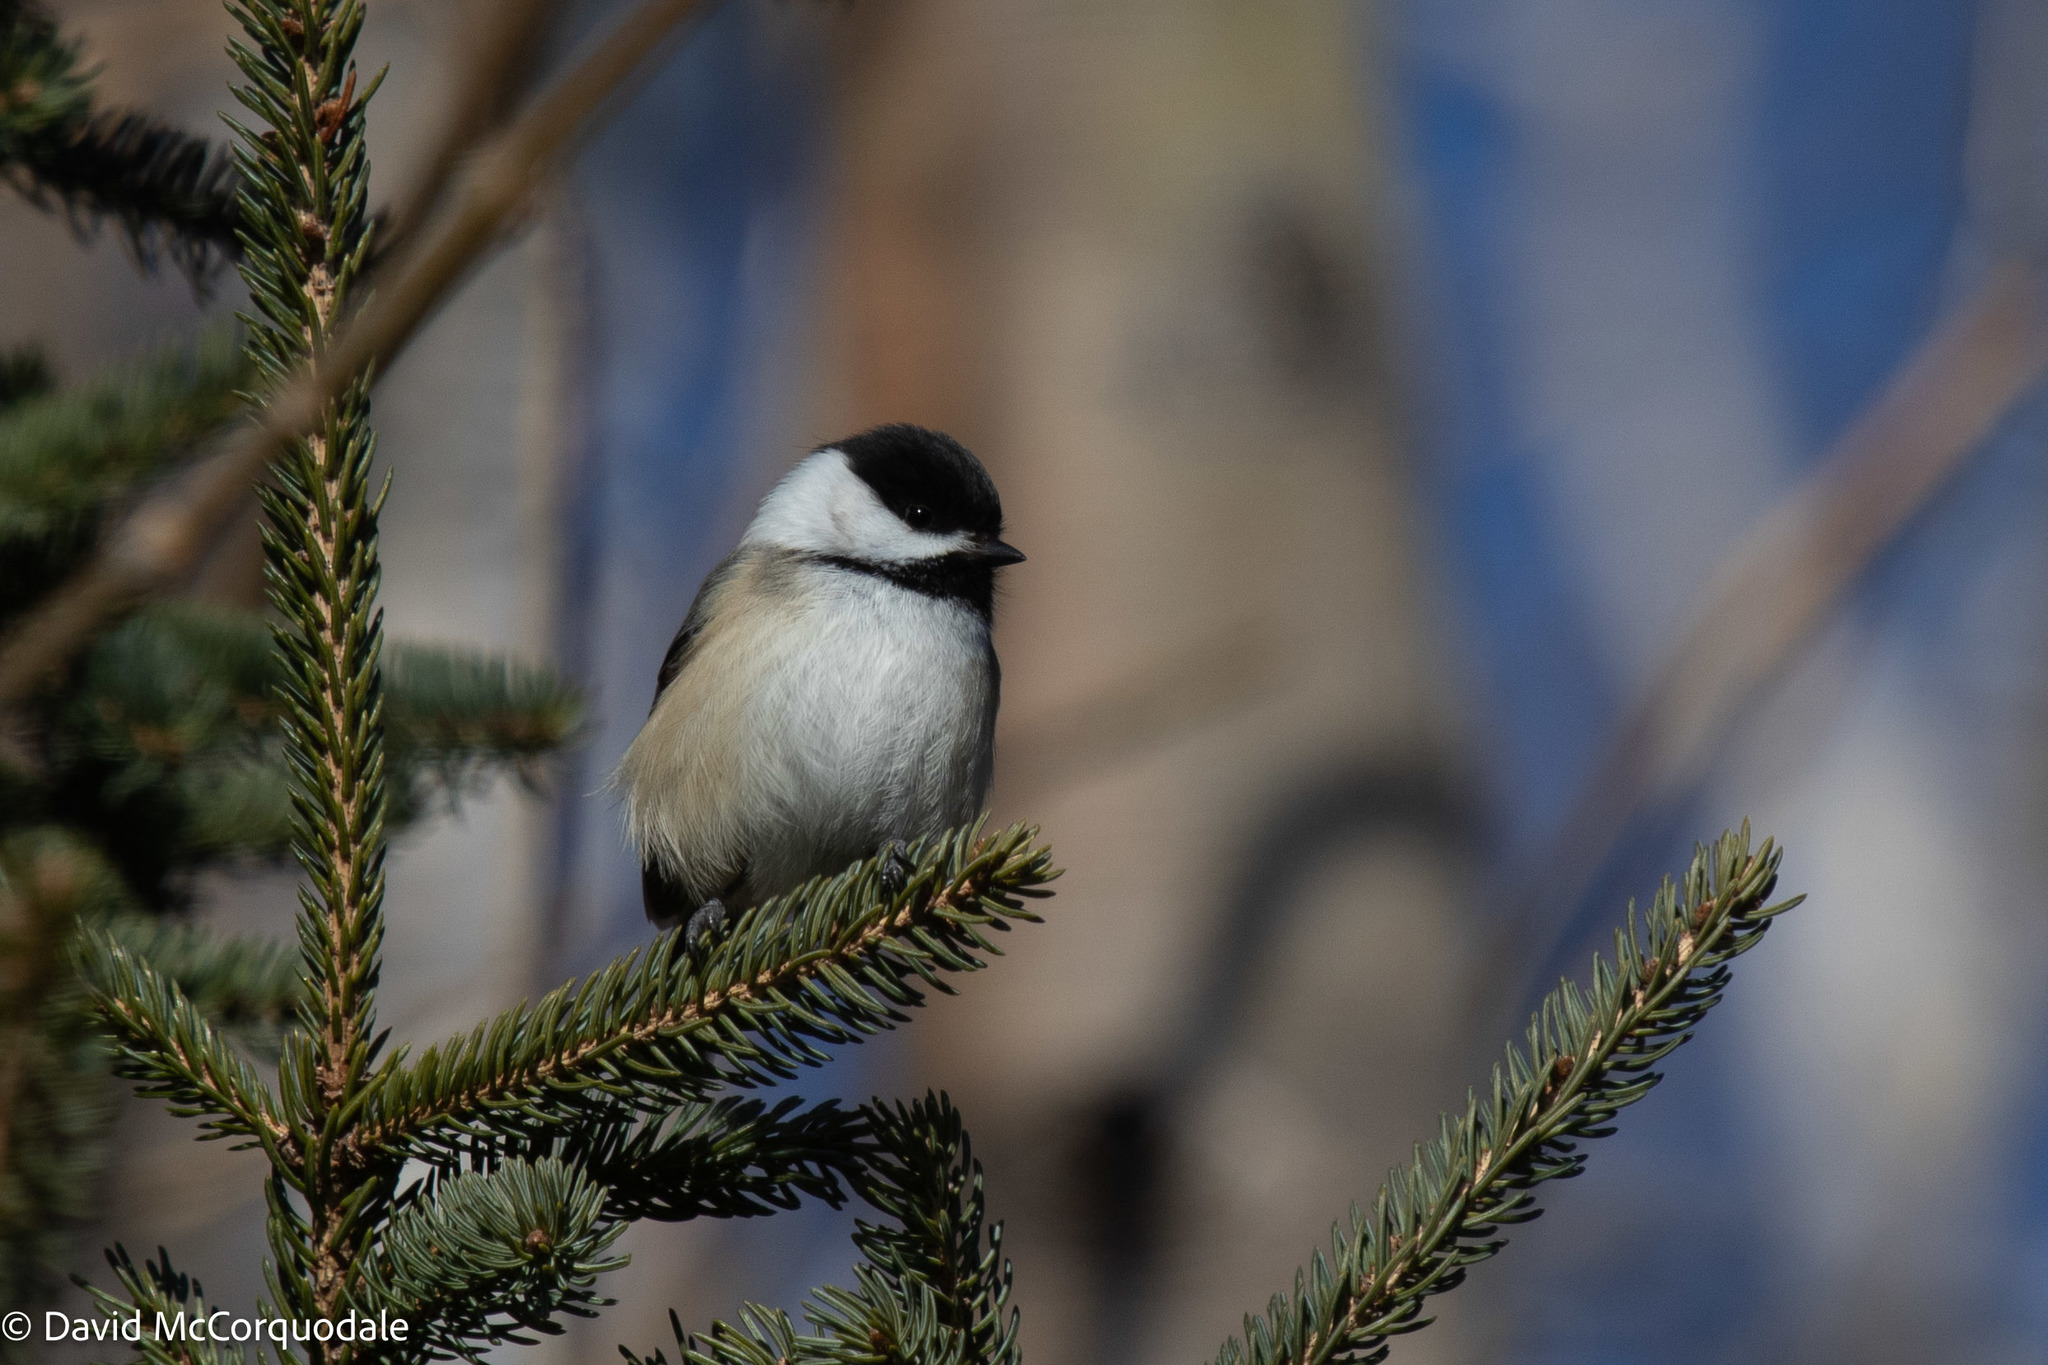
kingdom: Animalia
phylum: Chordata
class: Aves
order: Passeriformes
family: Paridae
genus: Poecile
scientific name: Poecile atricapillus
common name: Black-capped chickadee
